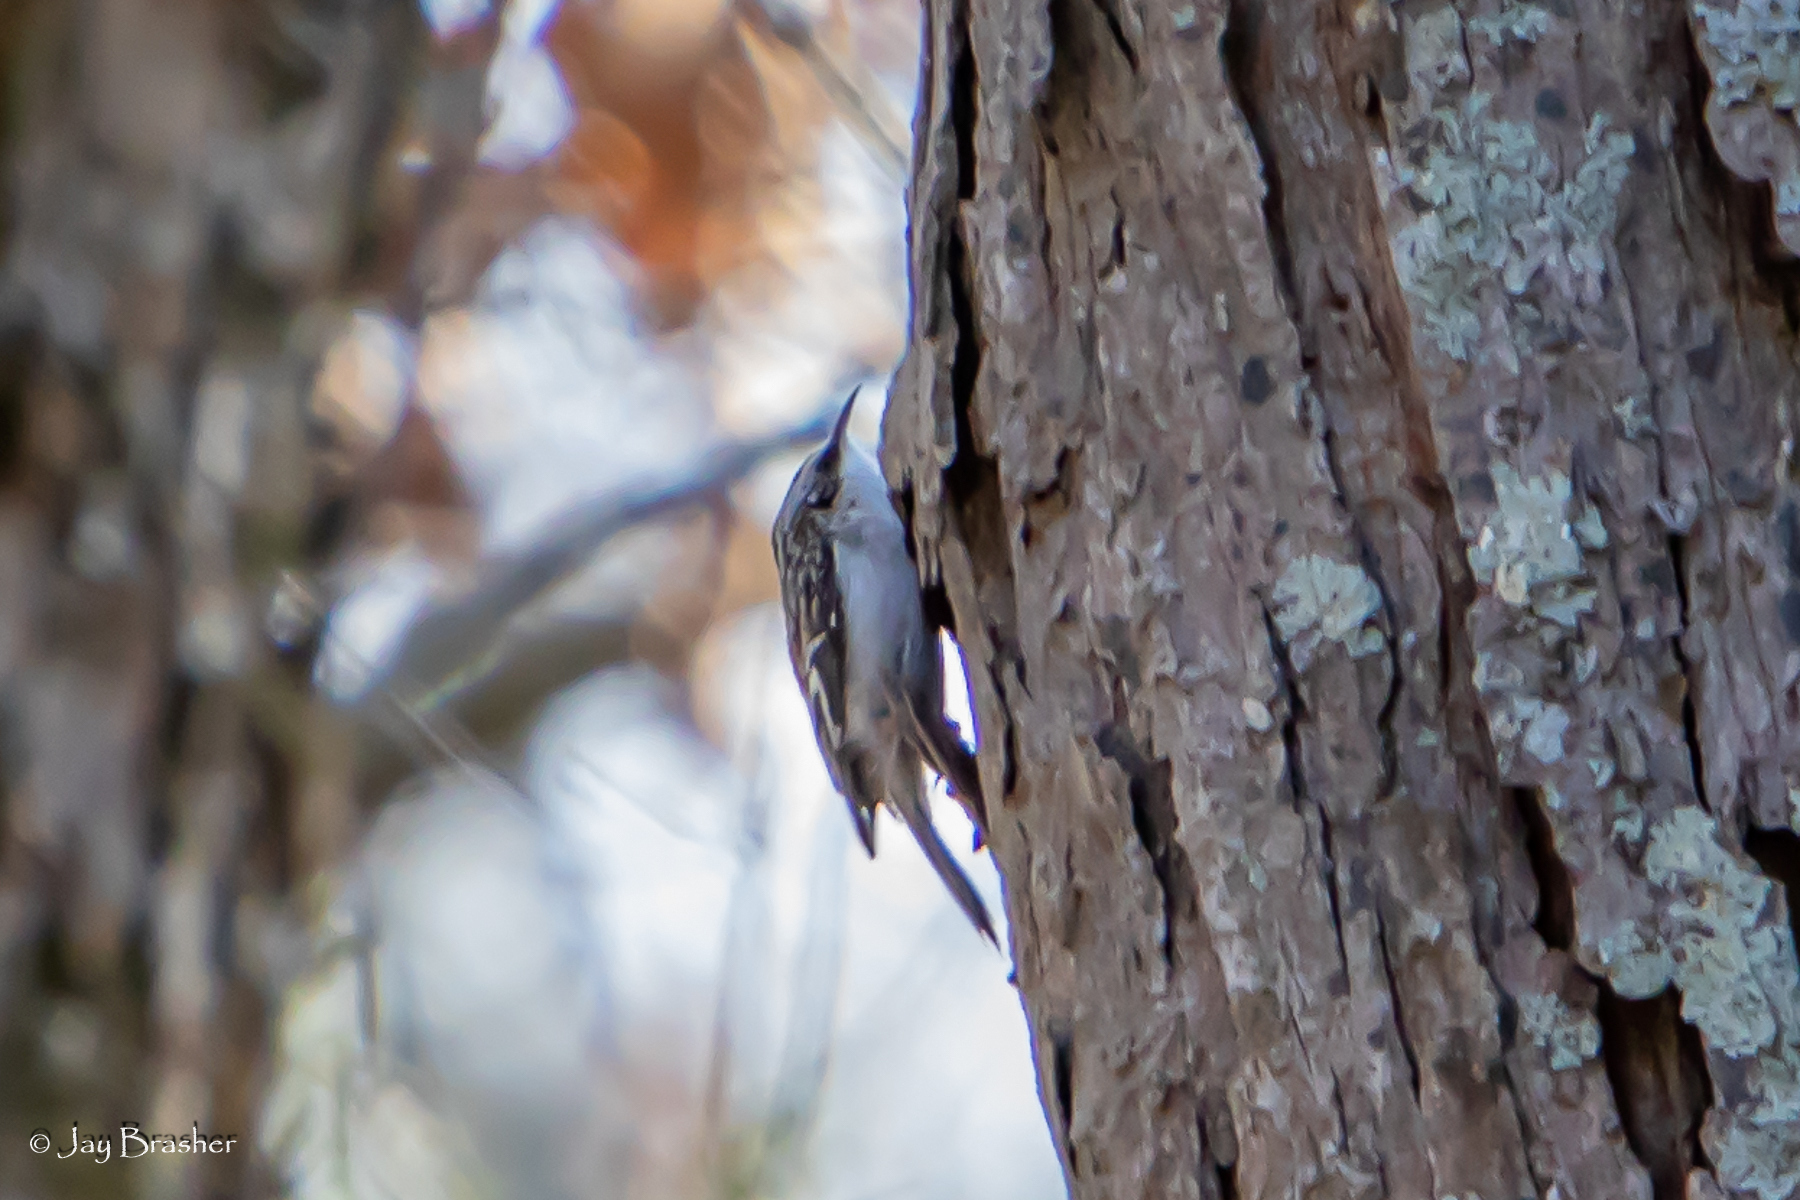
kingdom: Animalia
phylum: Chordata
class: Aves
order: Passeriformes
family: Certhiidae
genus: Certhia
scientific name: Certhia americana
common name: Brown creeper
